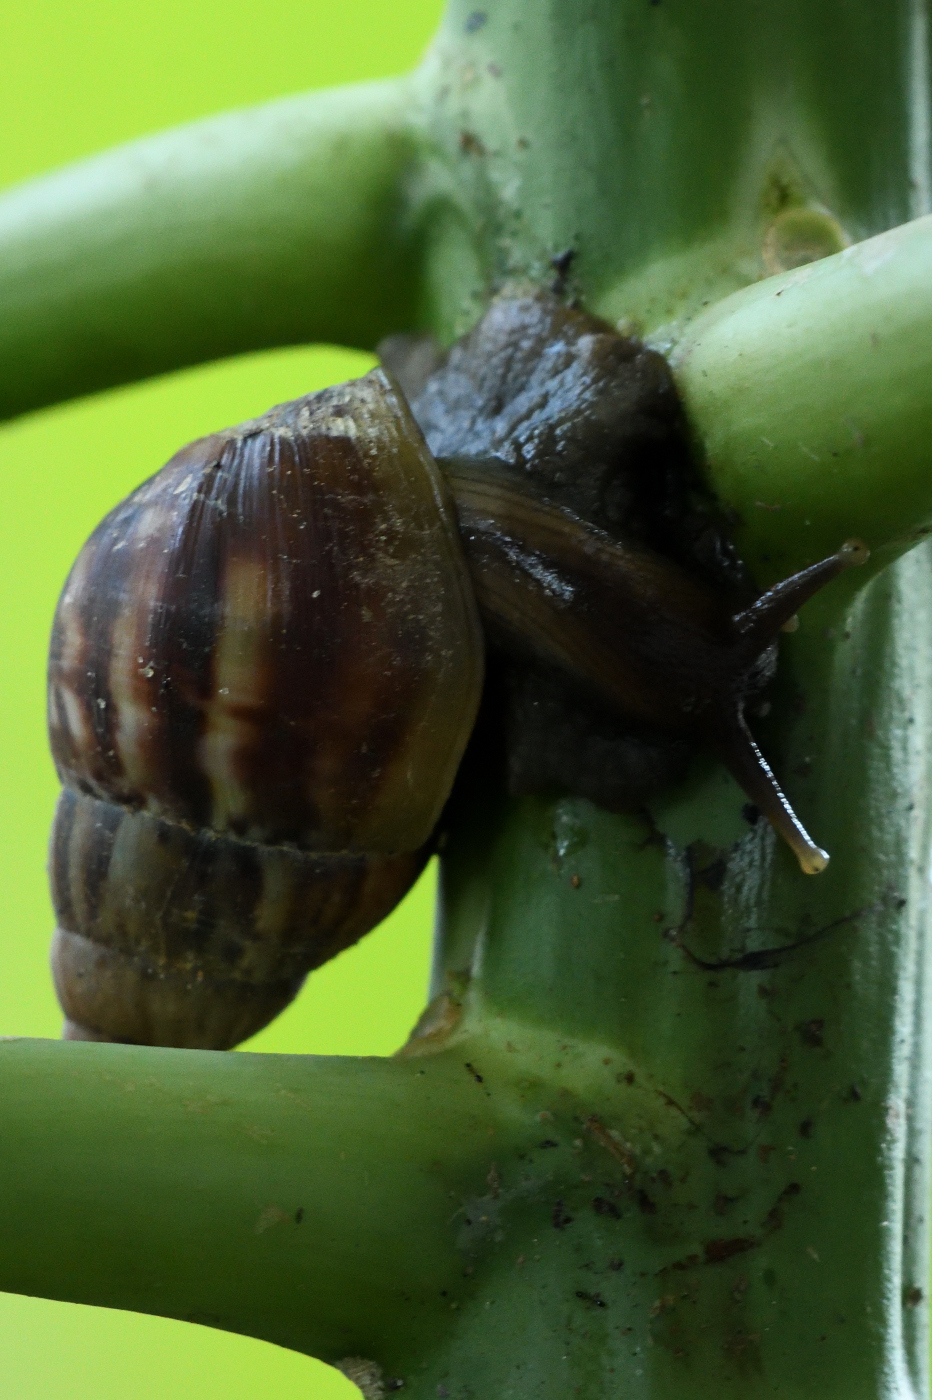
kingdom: Animalia
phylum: Mollusca
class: Gastropoda
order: Stylommatophora
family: Achatinidae
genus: Lissachatina
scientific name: Lissachatina fulica
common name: Giant african snail
